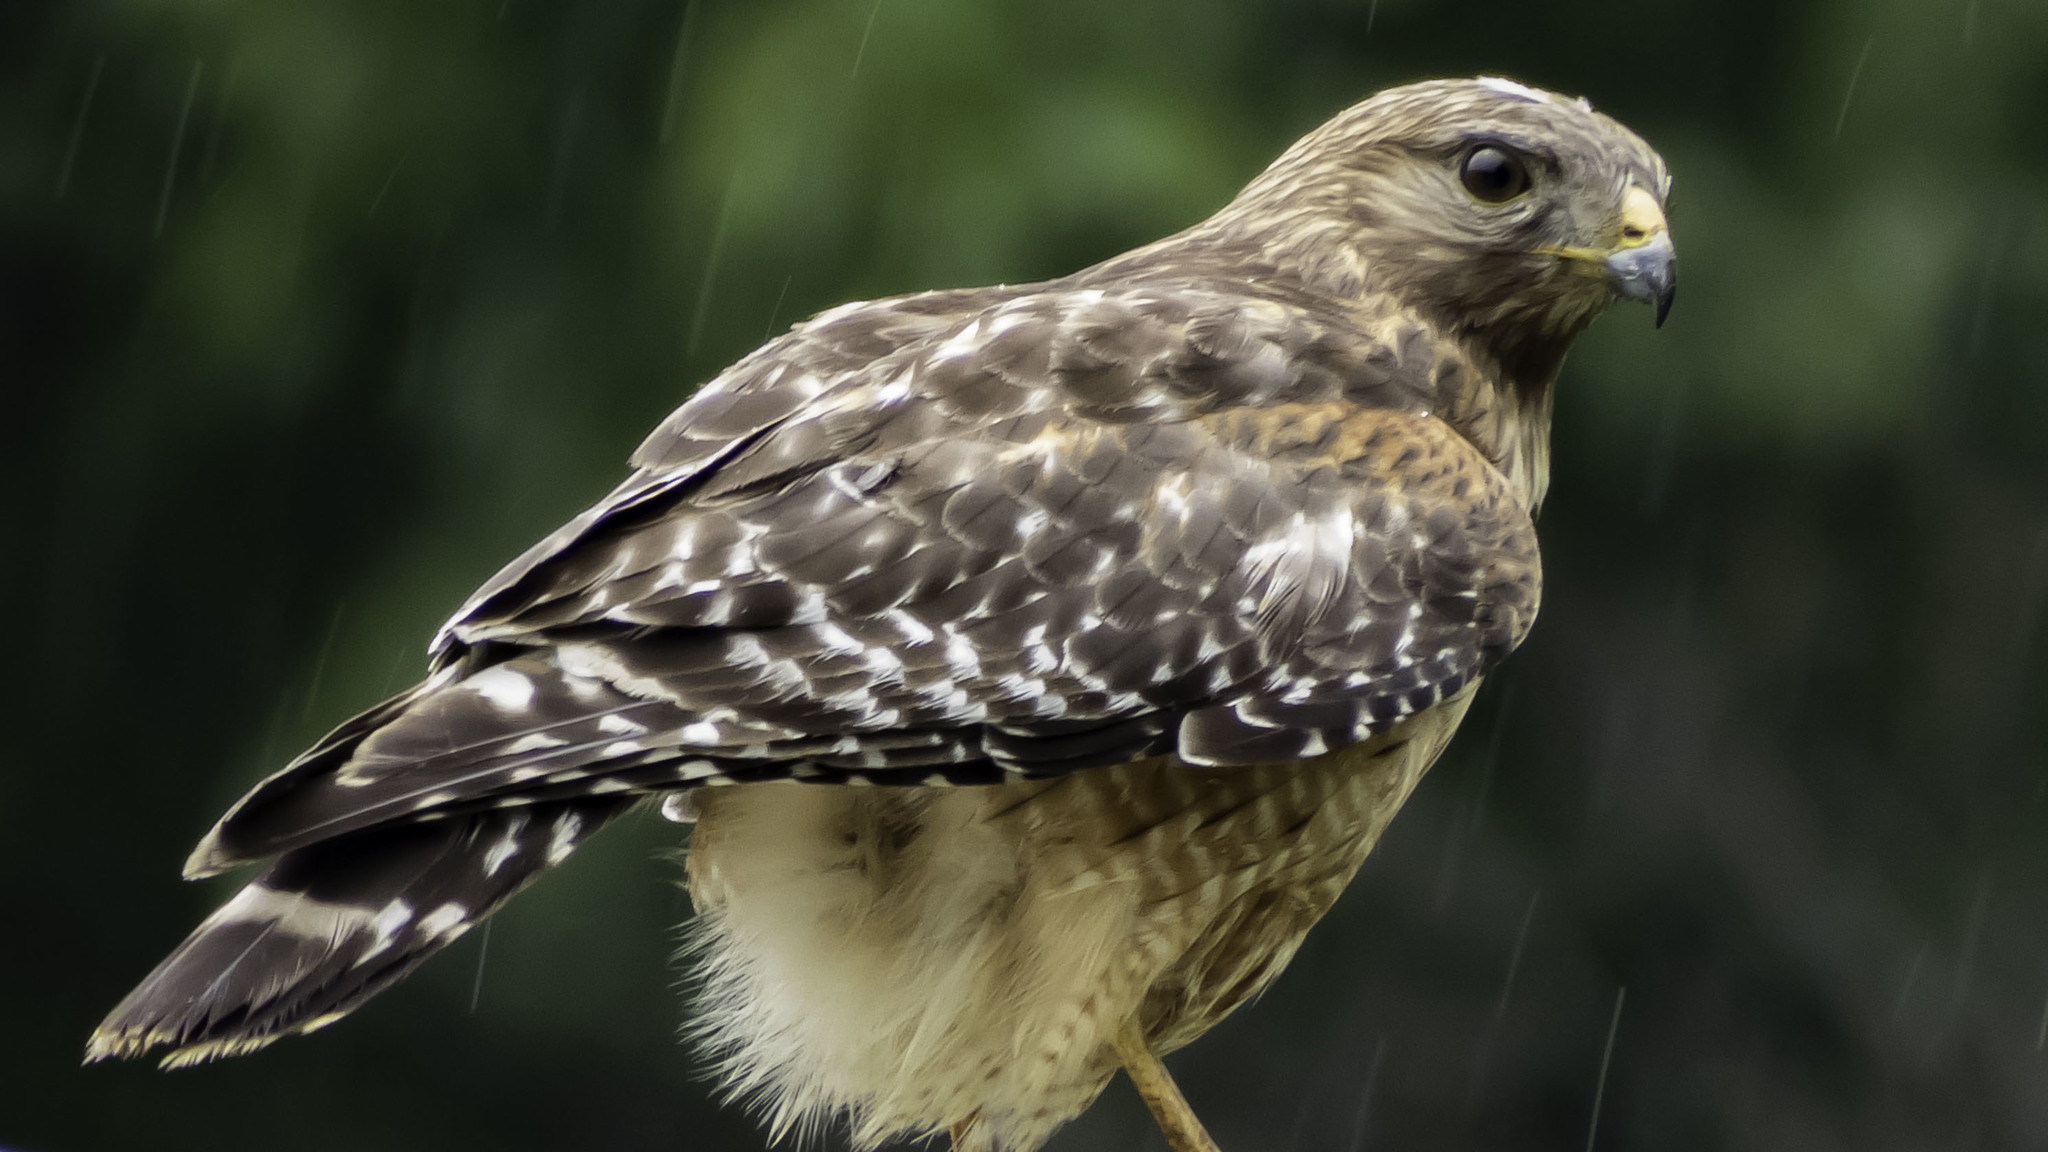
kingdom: Animalia
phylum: Chordata
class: Aves
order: Accipitriformes
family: Accipitridae
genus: Buteo
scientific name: Buteo lineatus
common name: Red-shouldered hawk
